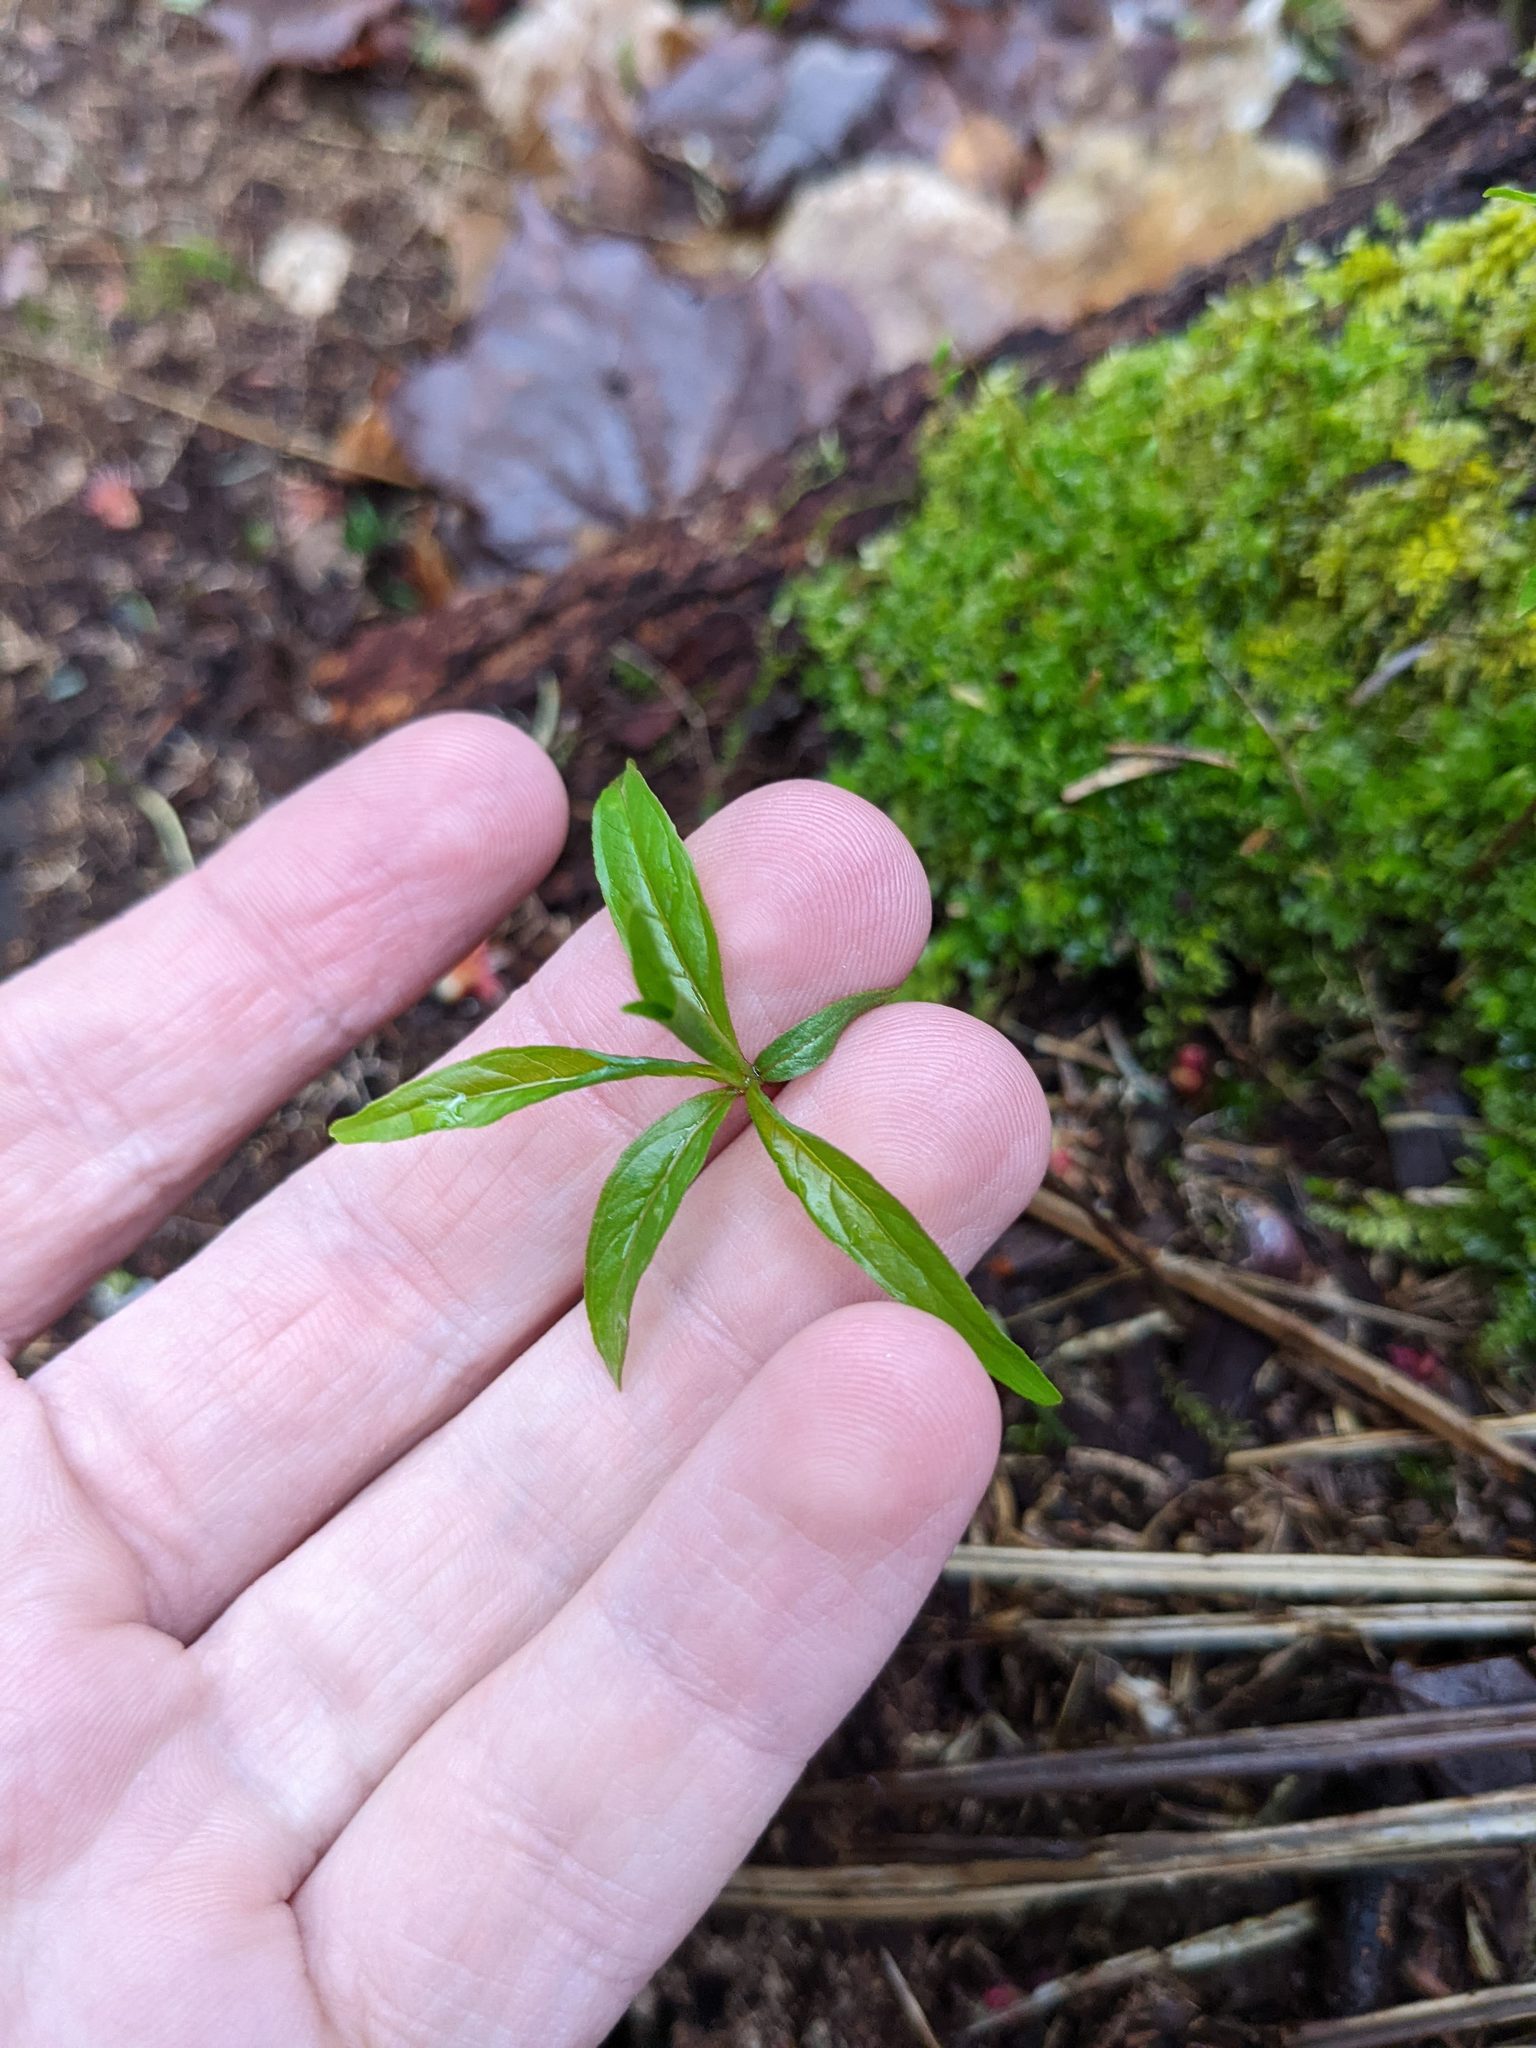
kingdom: Plantae
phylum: Tracheophyta
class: Magnoliopsida
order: Ericales
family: Primulaceae
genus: Lysimachia
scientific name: Lysimachia borealis
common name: American starflower
